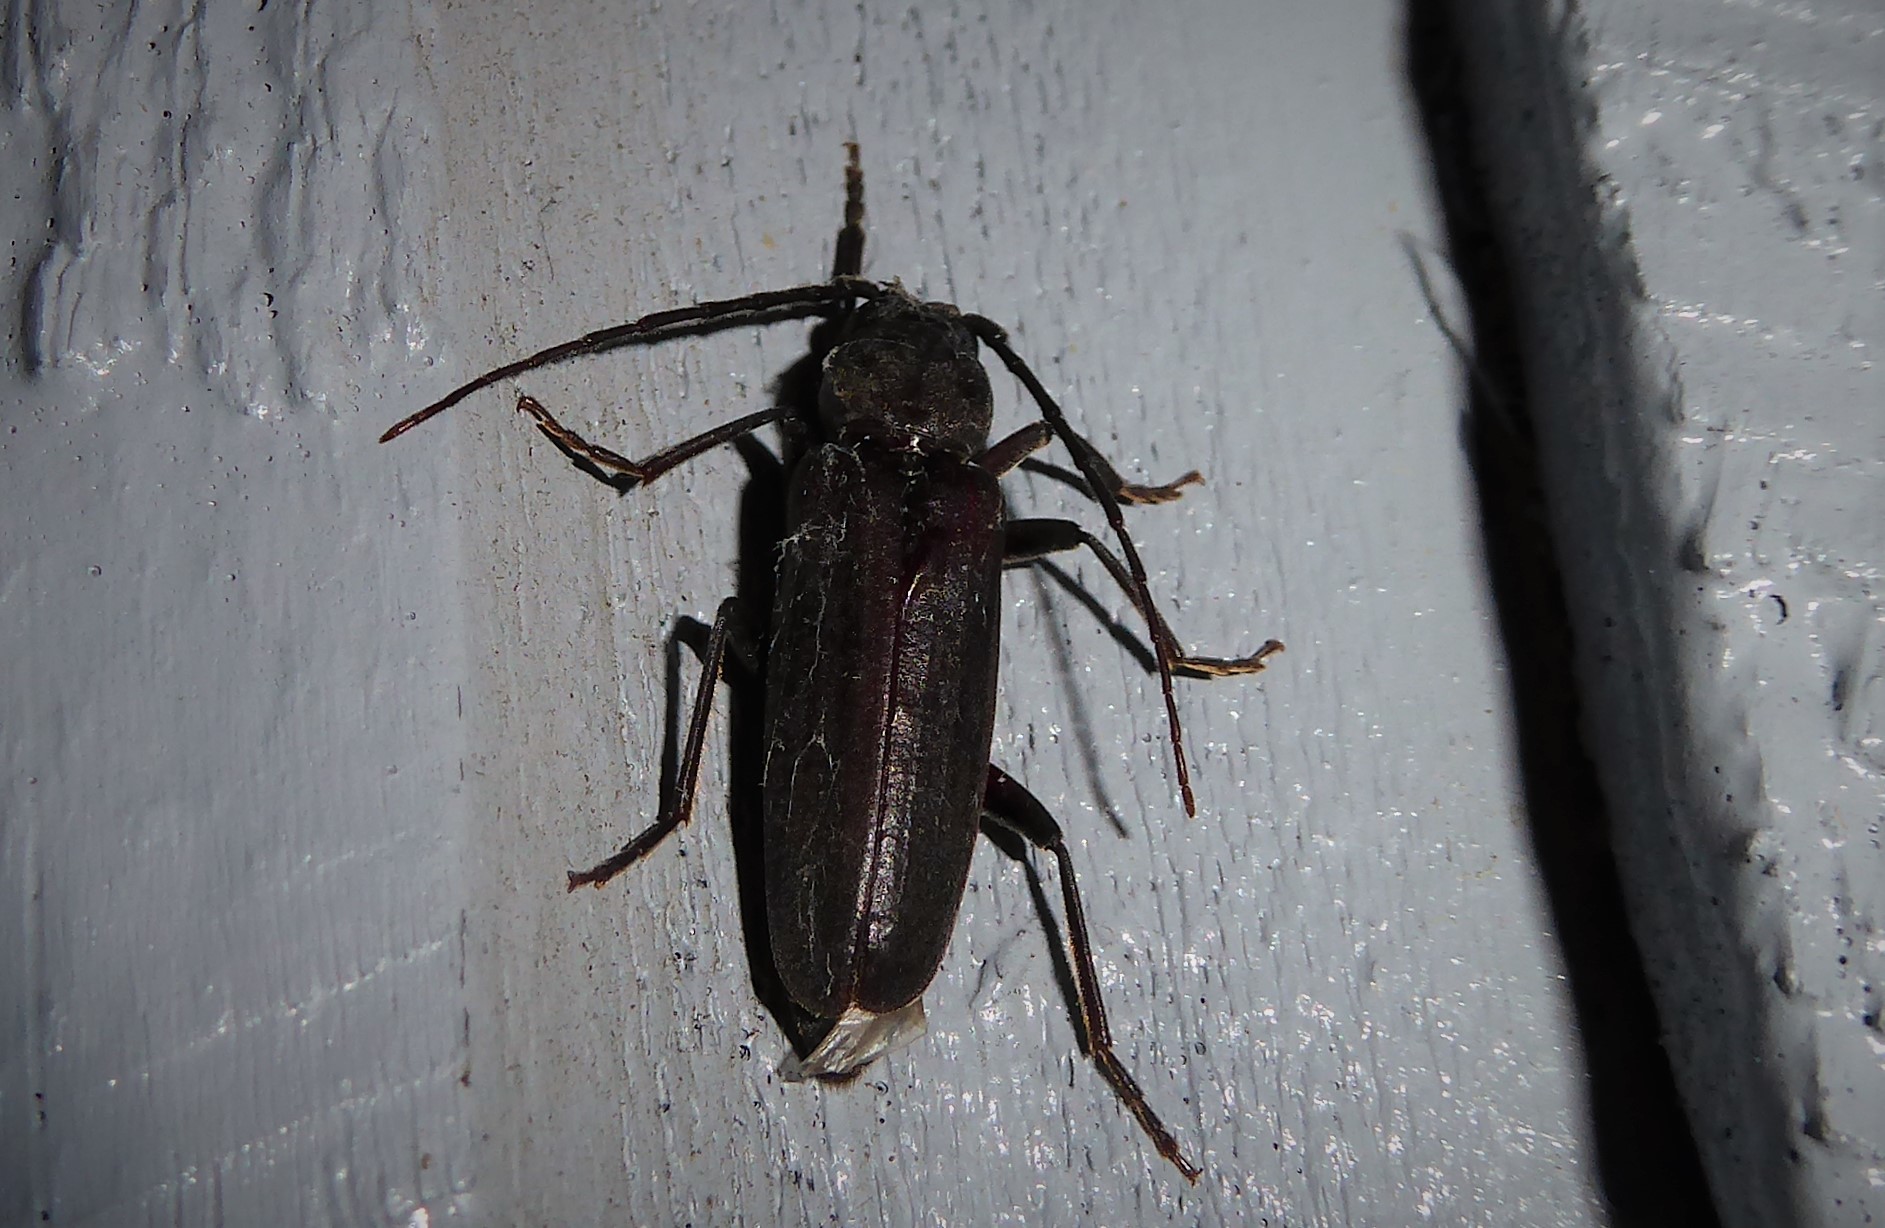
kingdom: Animalia
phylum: Arthropoda
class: Insecta
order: Coleoptera
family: Cerambycidae
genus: Arhopalus
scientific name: Arhopalus ferus
